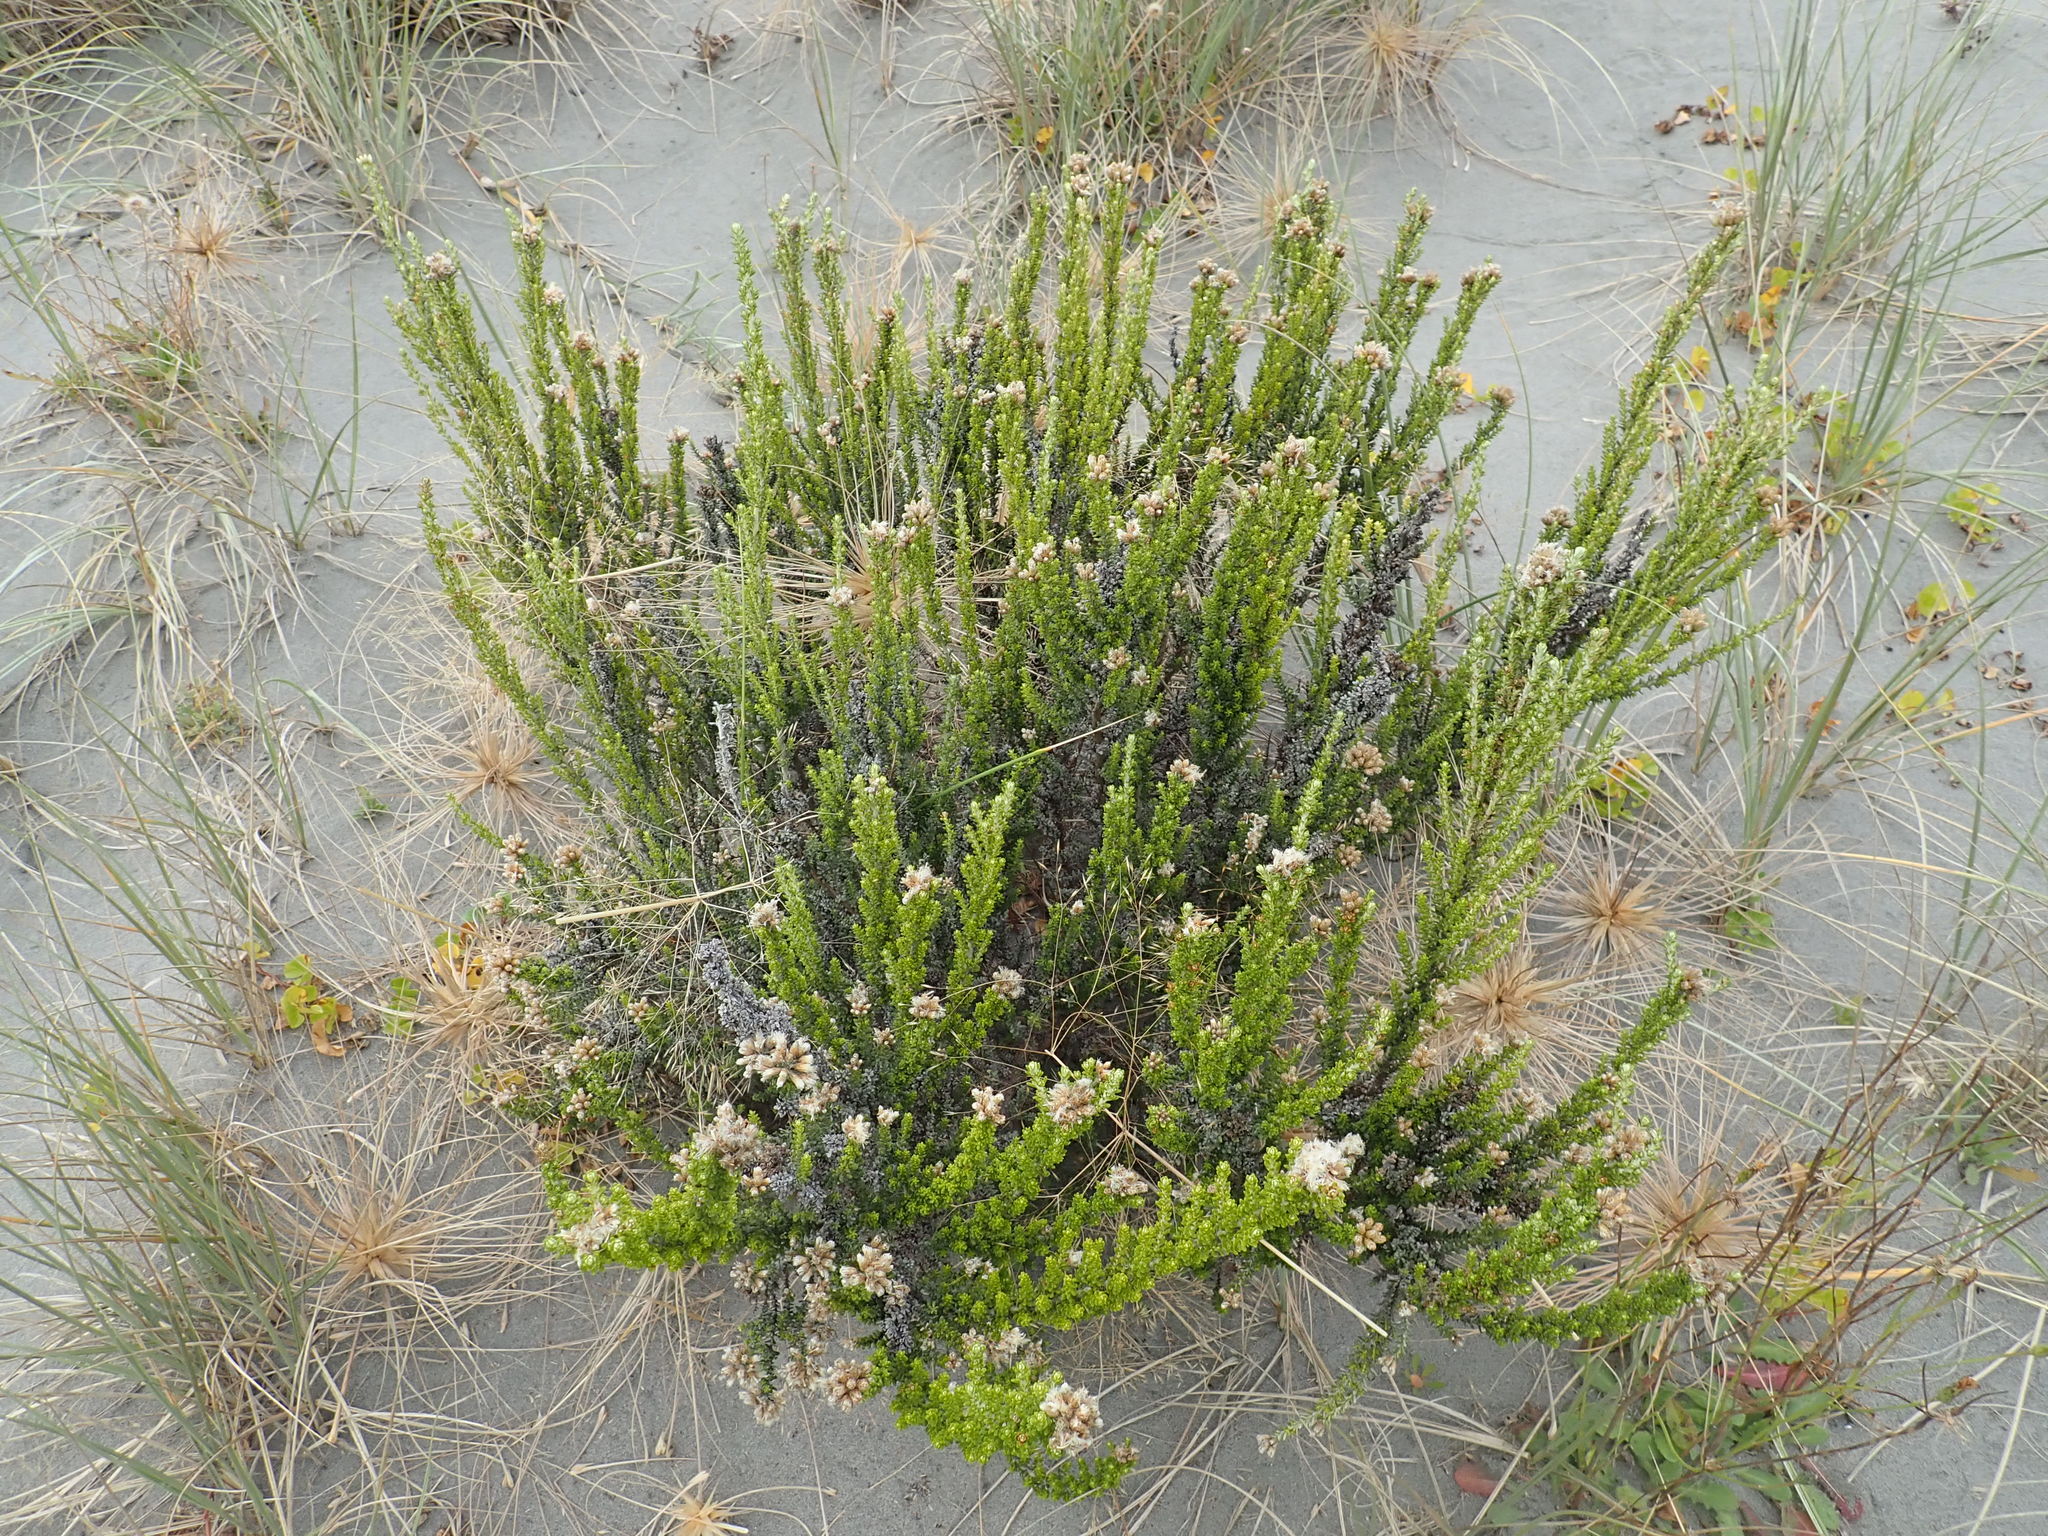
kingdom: Plantae
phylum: Tracheophyta
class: Magnoliopsida
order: Asterales
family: Asteraceae
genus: Ozothamnus
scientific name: Ozothamnus leptophyllus
